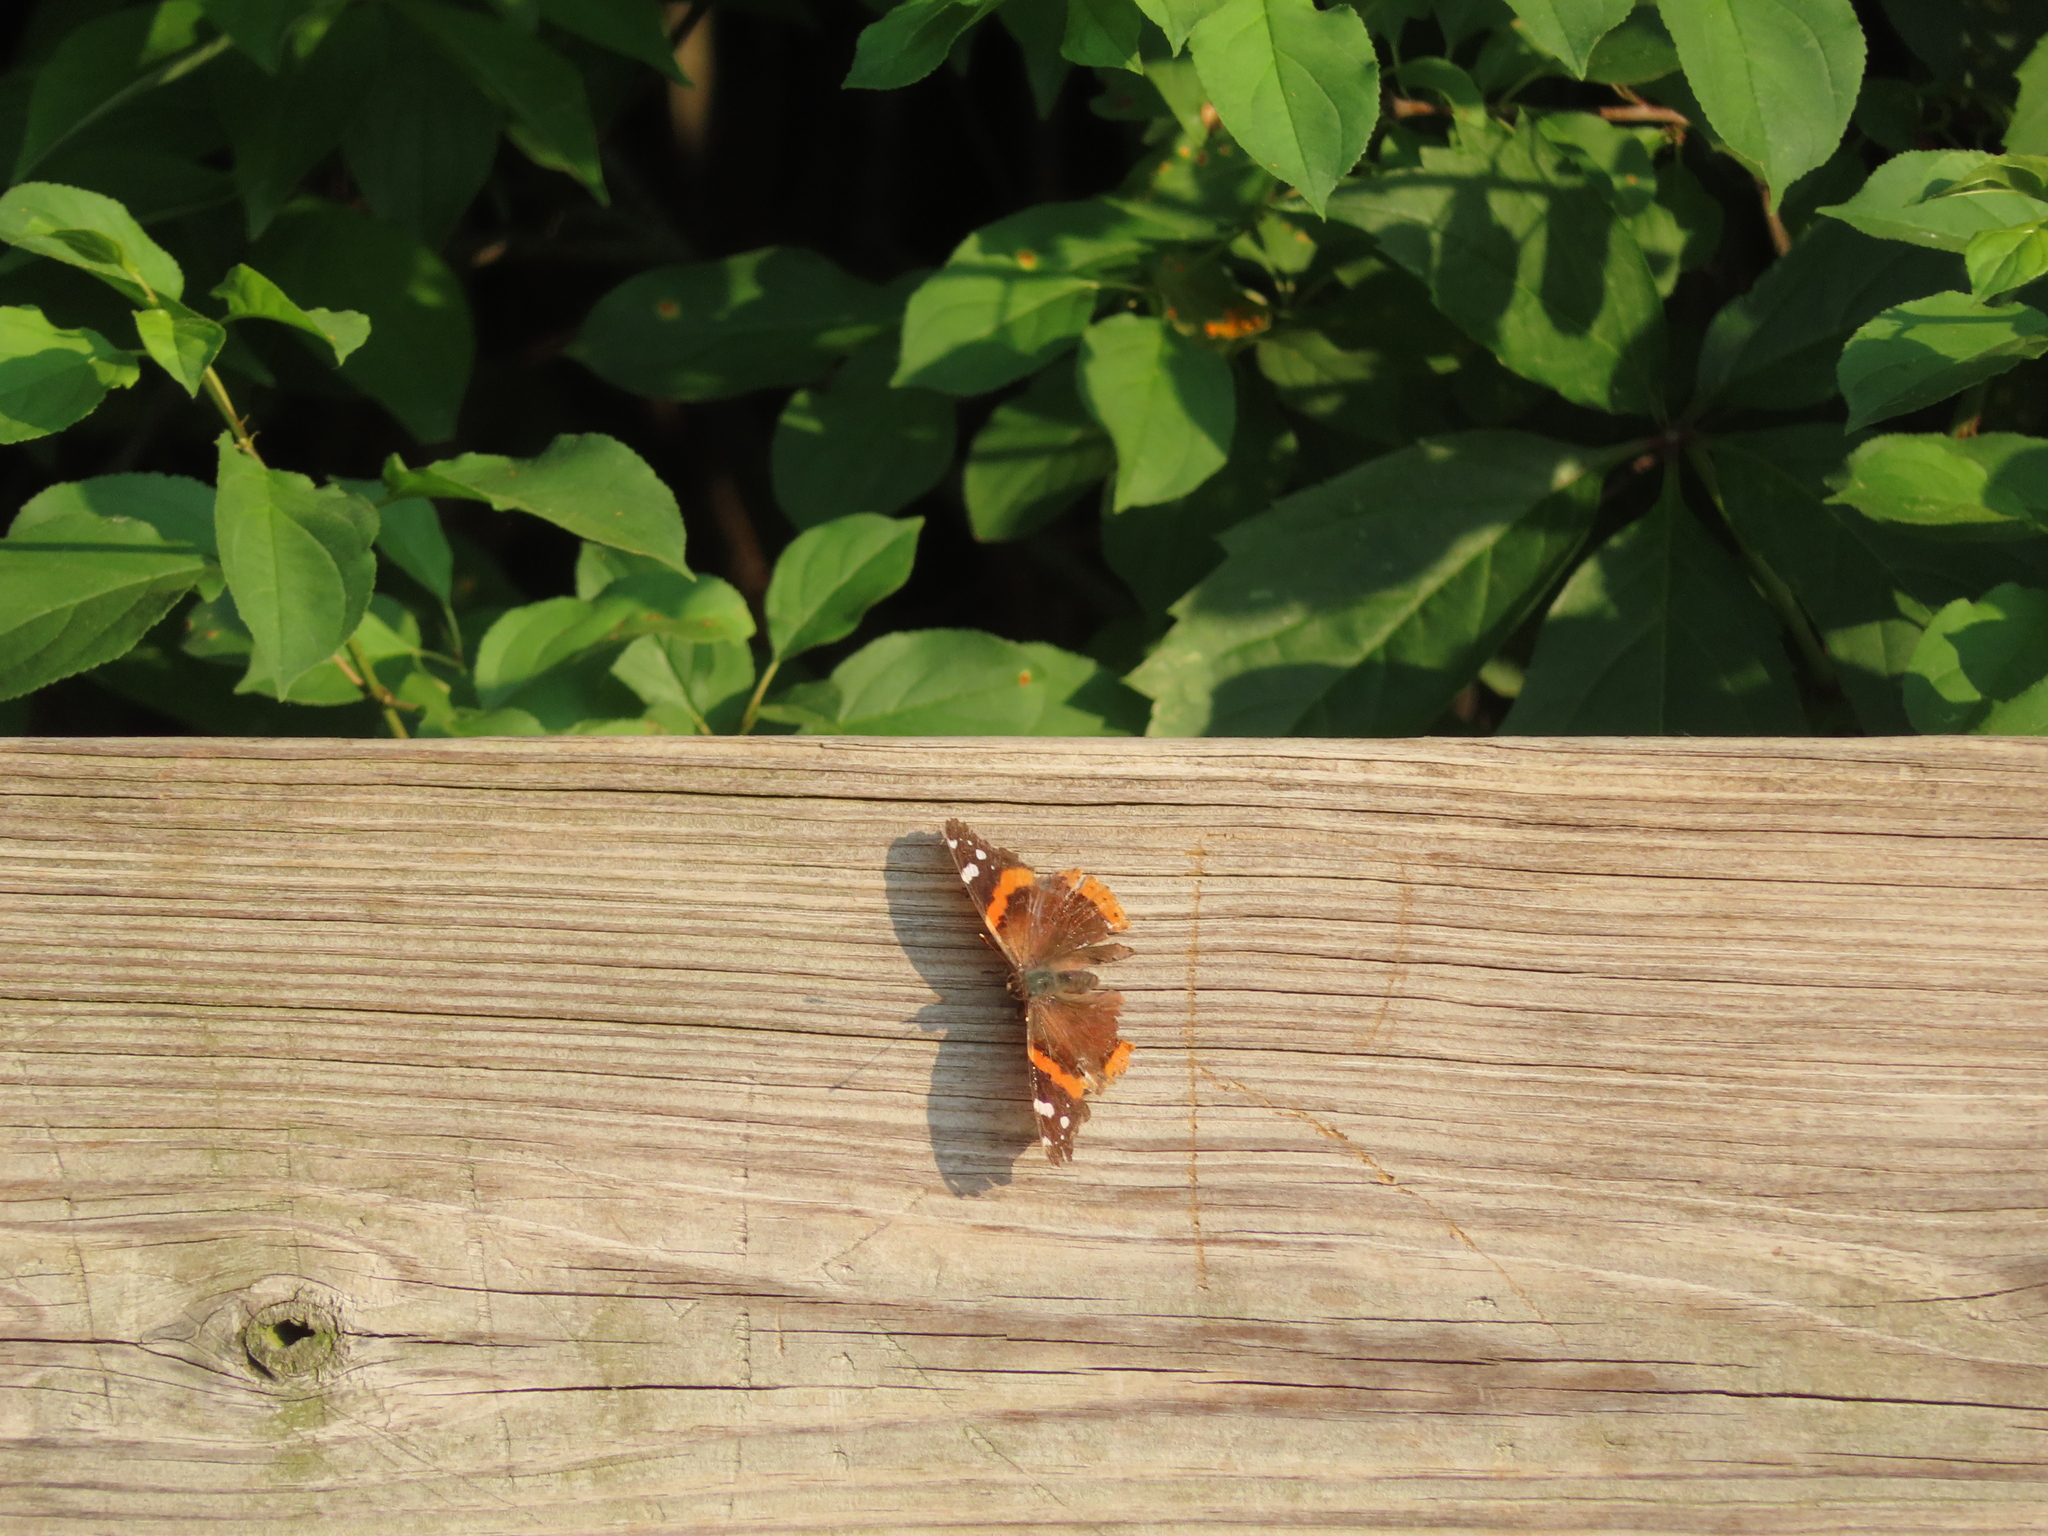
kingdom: Animalia
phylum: Arthropoda
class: Insecta
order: Lepidoptera
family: Nymphalidae
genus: Vanessa
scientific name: Vanessa atalanta
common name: Red admiral
